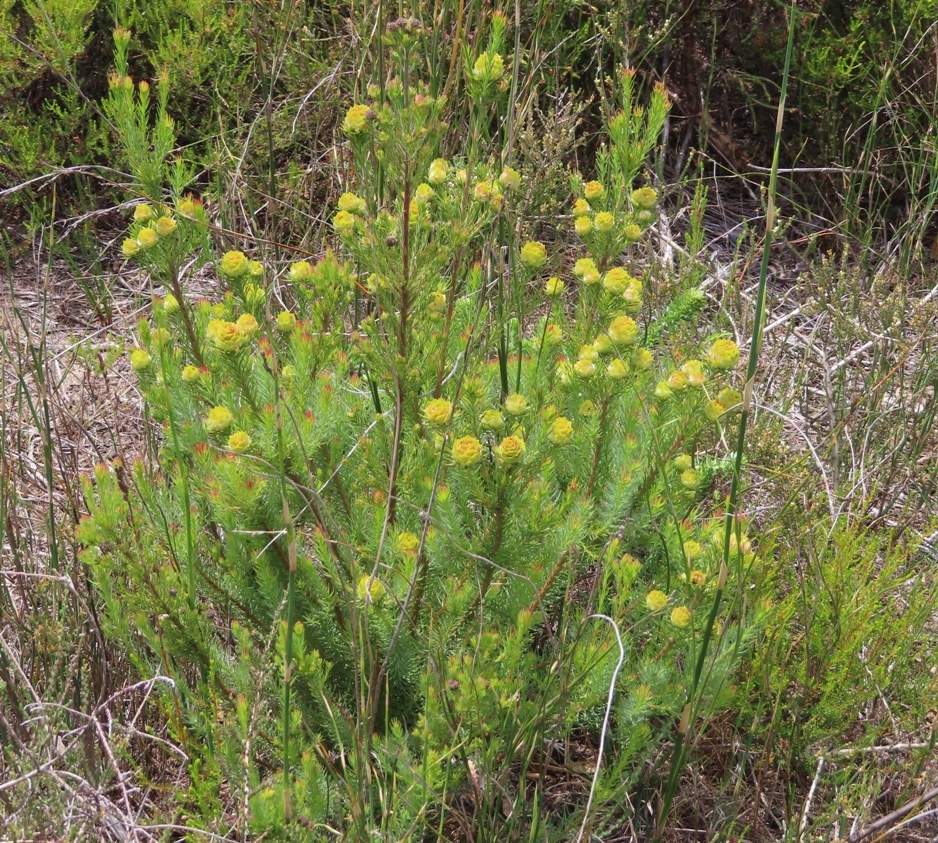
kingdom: Plantae
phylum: Tracheophyta
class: Magnoliopsida
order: Proteales
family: Proteaceae
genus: Leucadendron
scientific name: Leucadendron laxum
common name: Bredasdorp conebush
